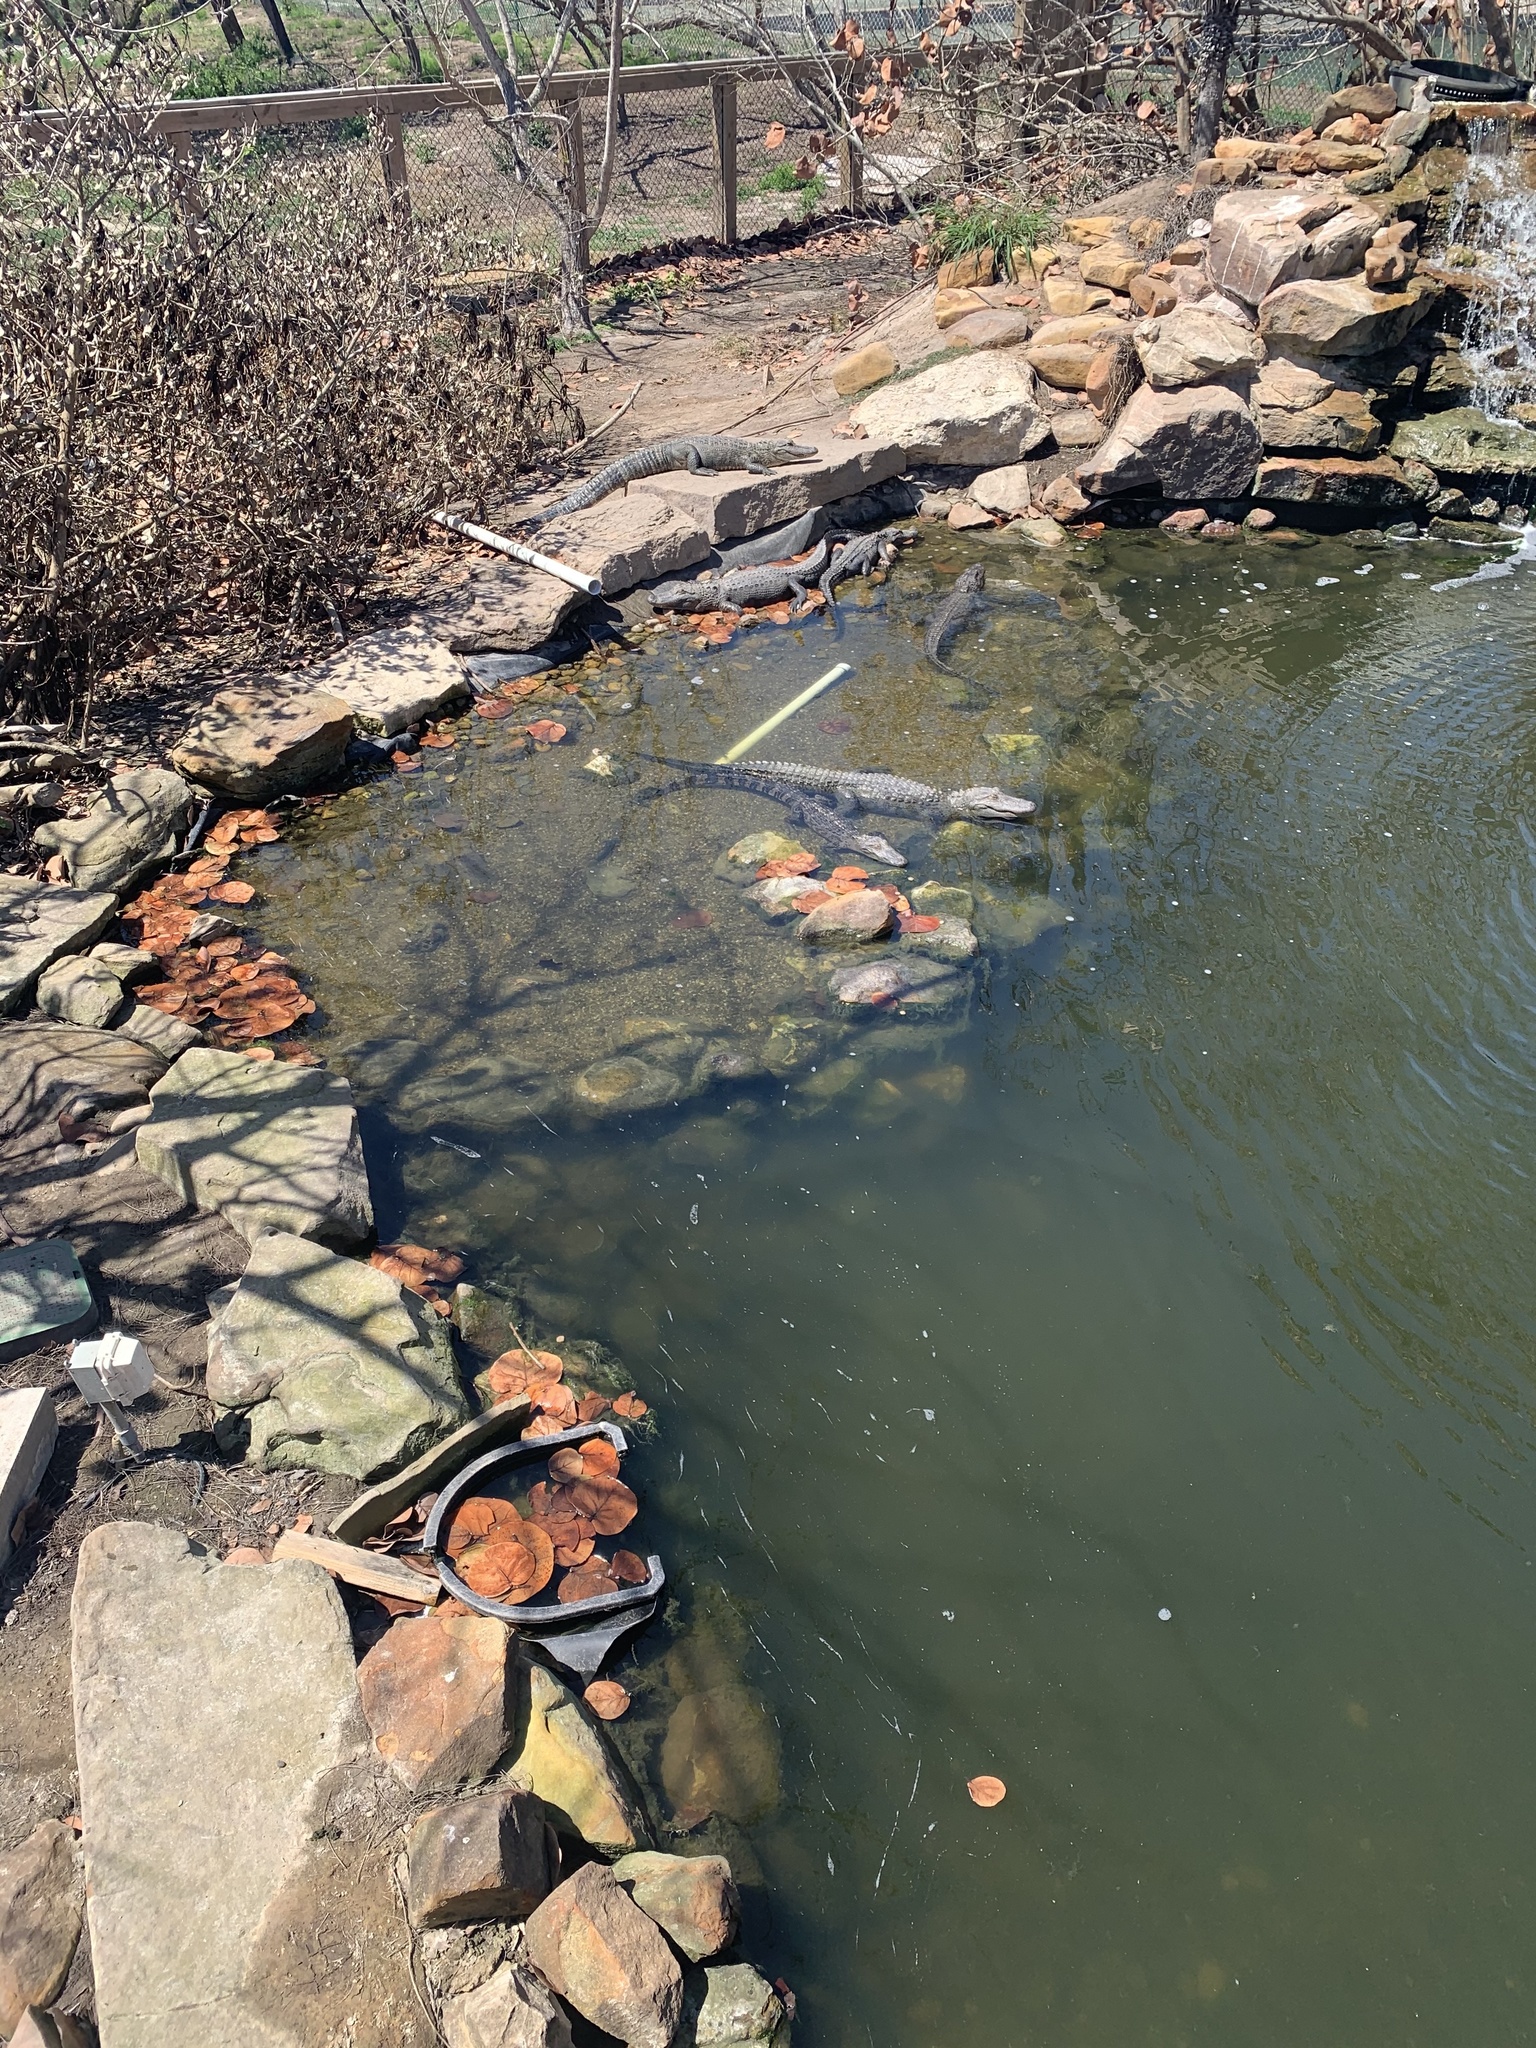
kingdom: Animalia
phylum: Chordata
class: Crocodylia
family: Alligatoridae
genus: Alligator
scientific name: Alligator mississippiensis
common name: American alligator
